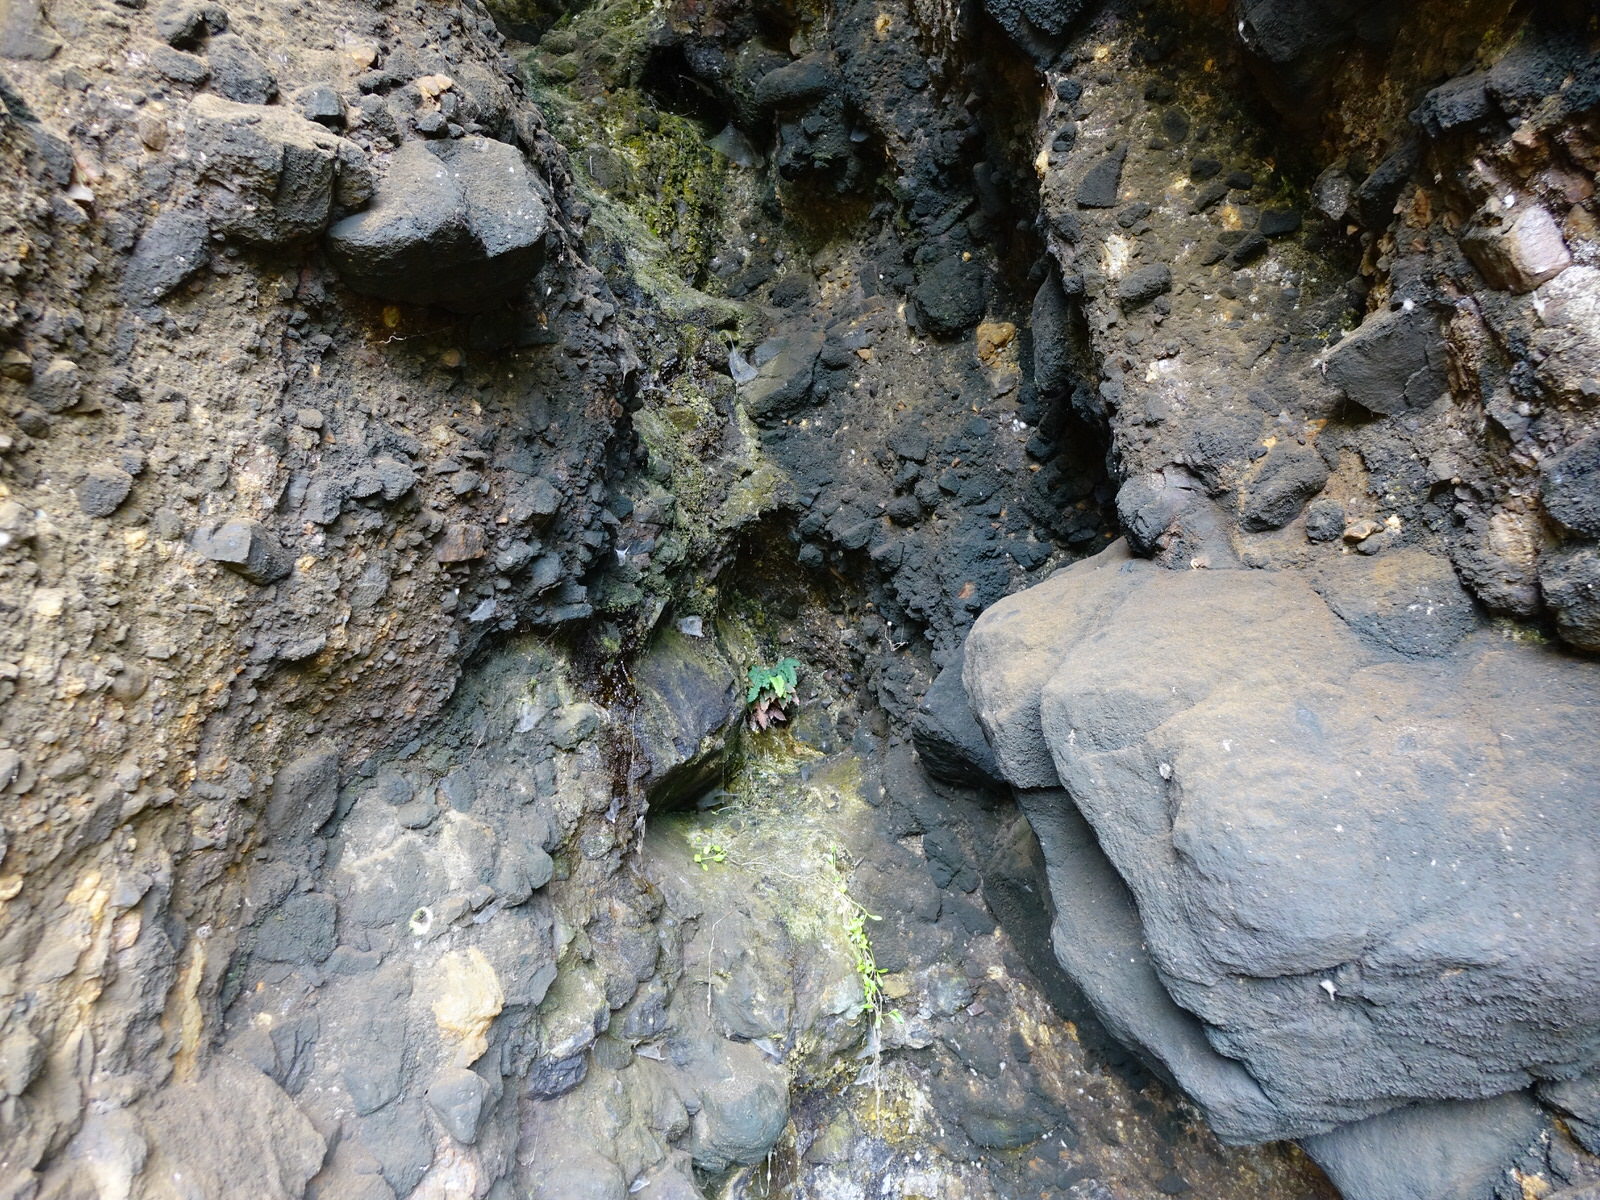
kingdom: Plantae
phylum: Tracheophyta
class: Polypodiopsida
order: Polypodiales
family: Pteridaceae
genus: Adiantum
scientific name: Adiantum cunninghamii
